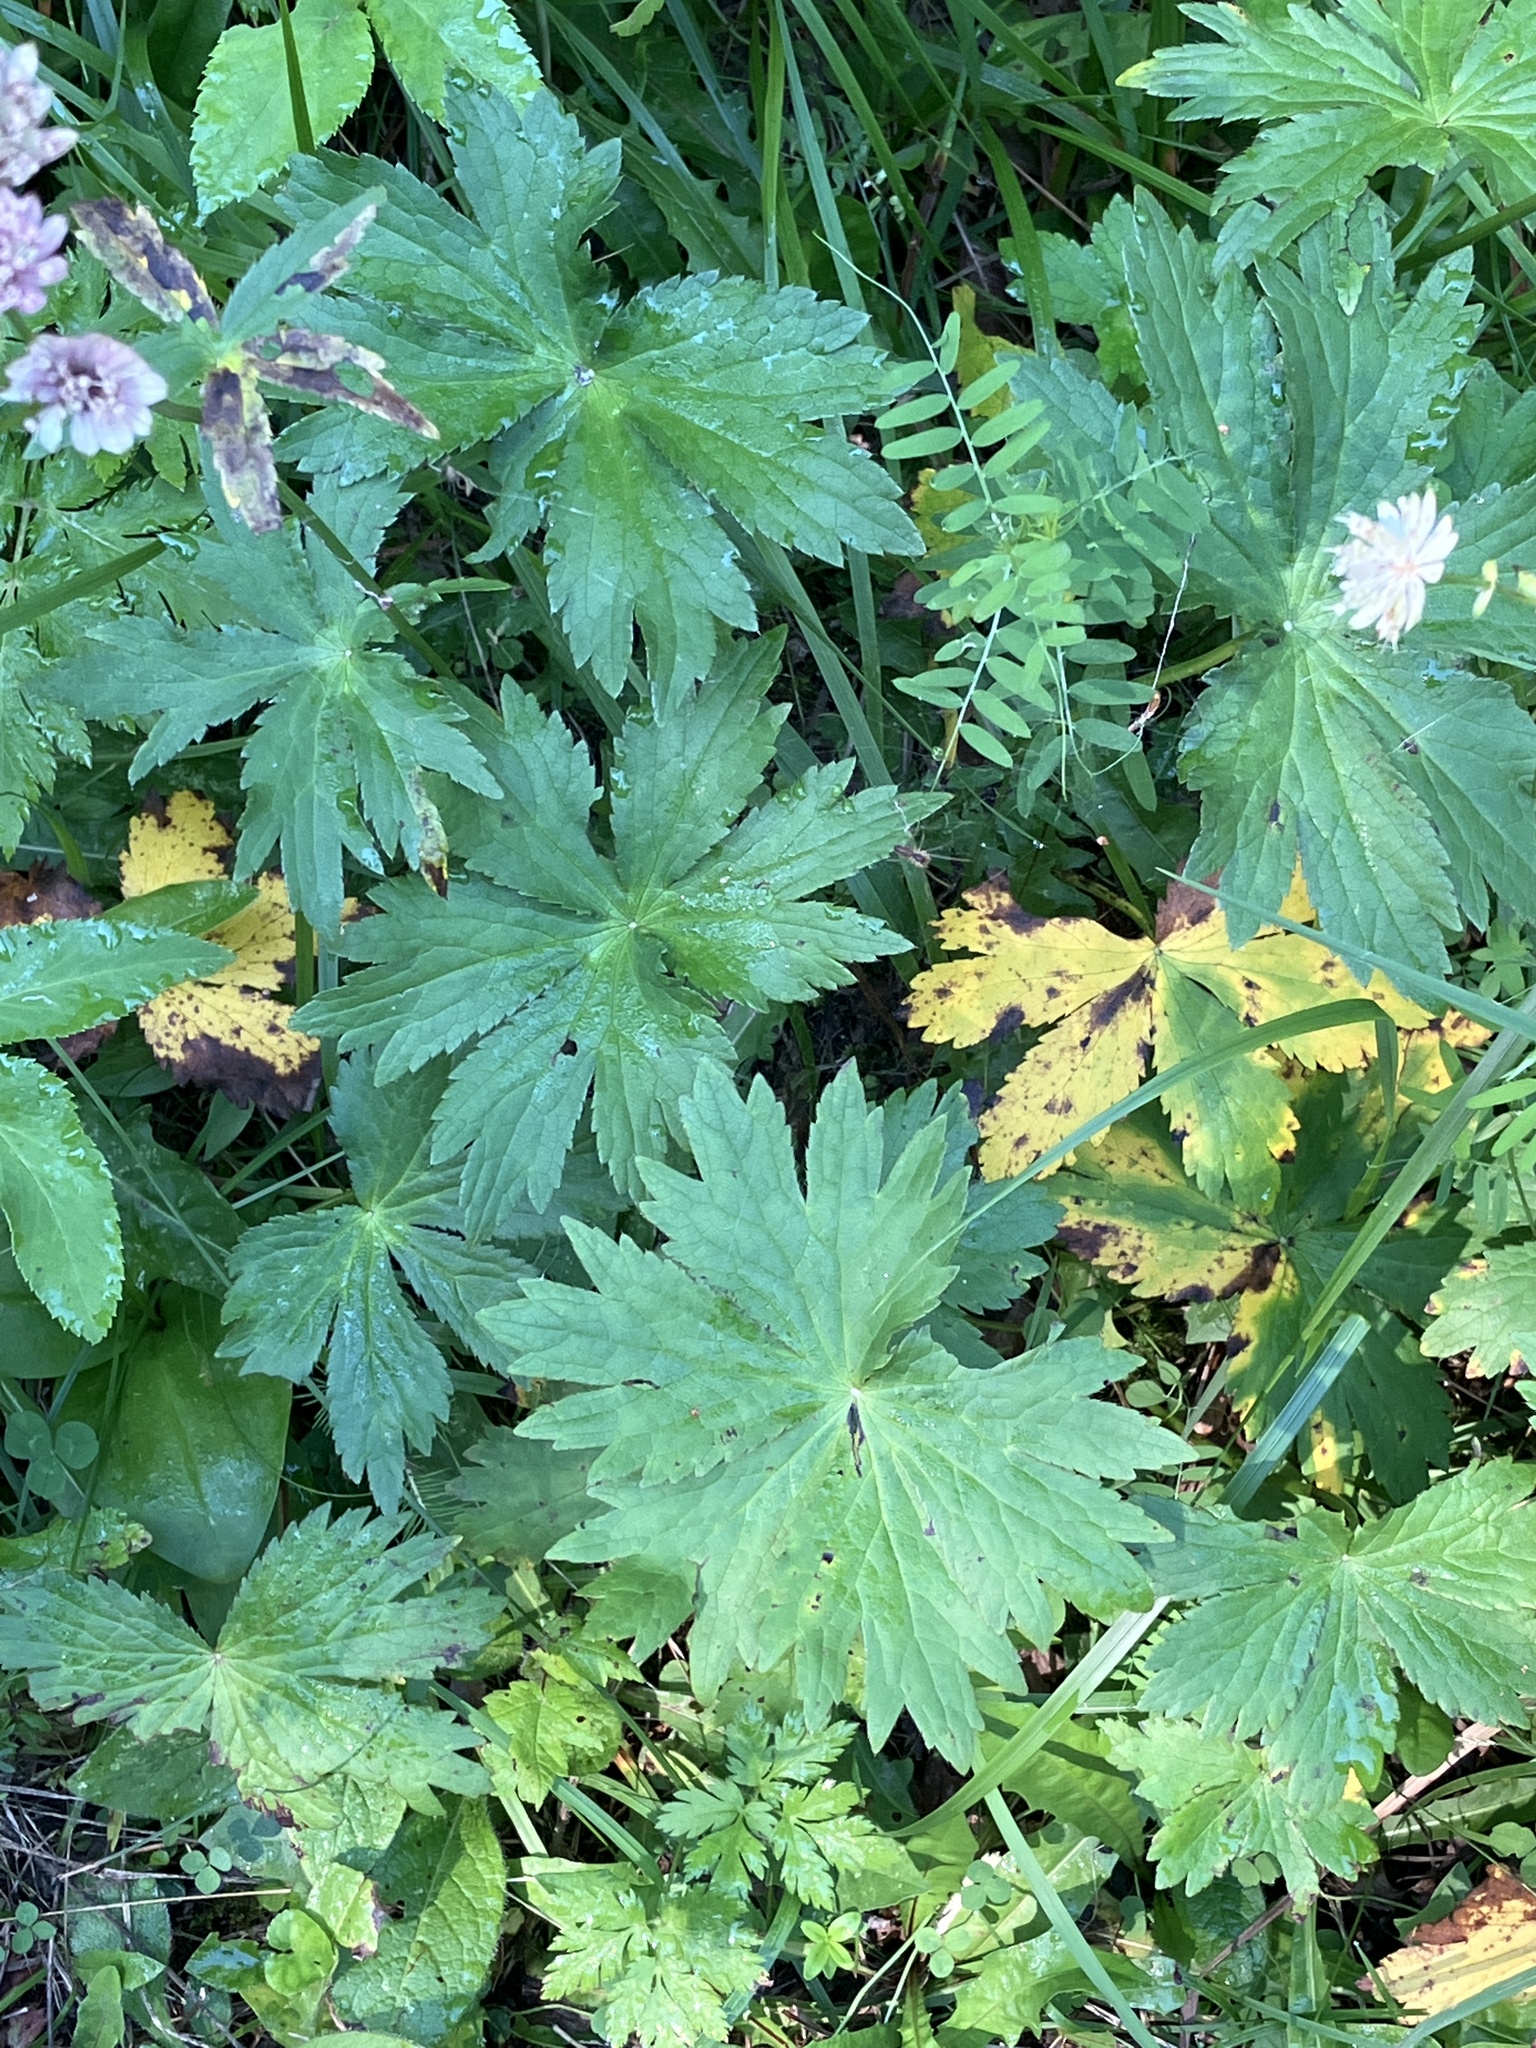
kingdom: Plantae
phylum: Tracheophyta
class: Magnoliopsida
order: Apiales
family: Apiaceae
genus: Astrantia
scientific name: Astrantia major
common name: Greater masterwort
